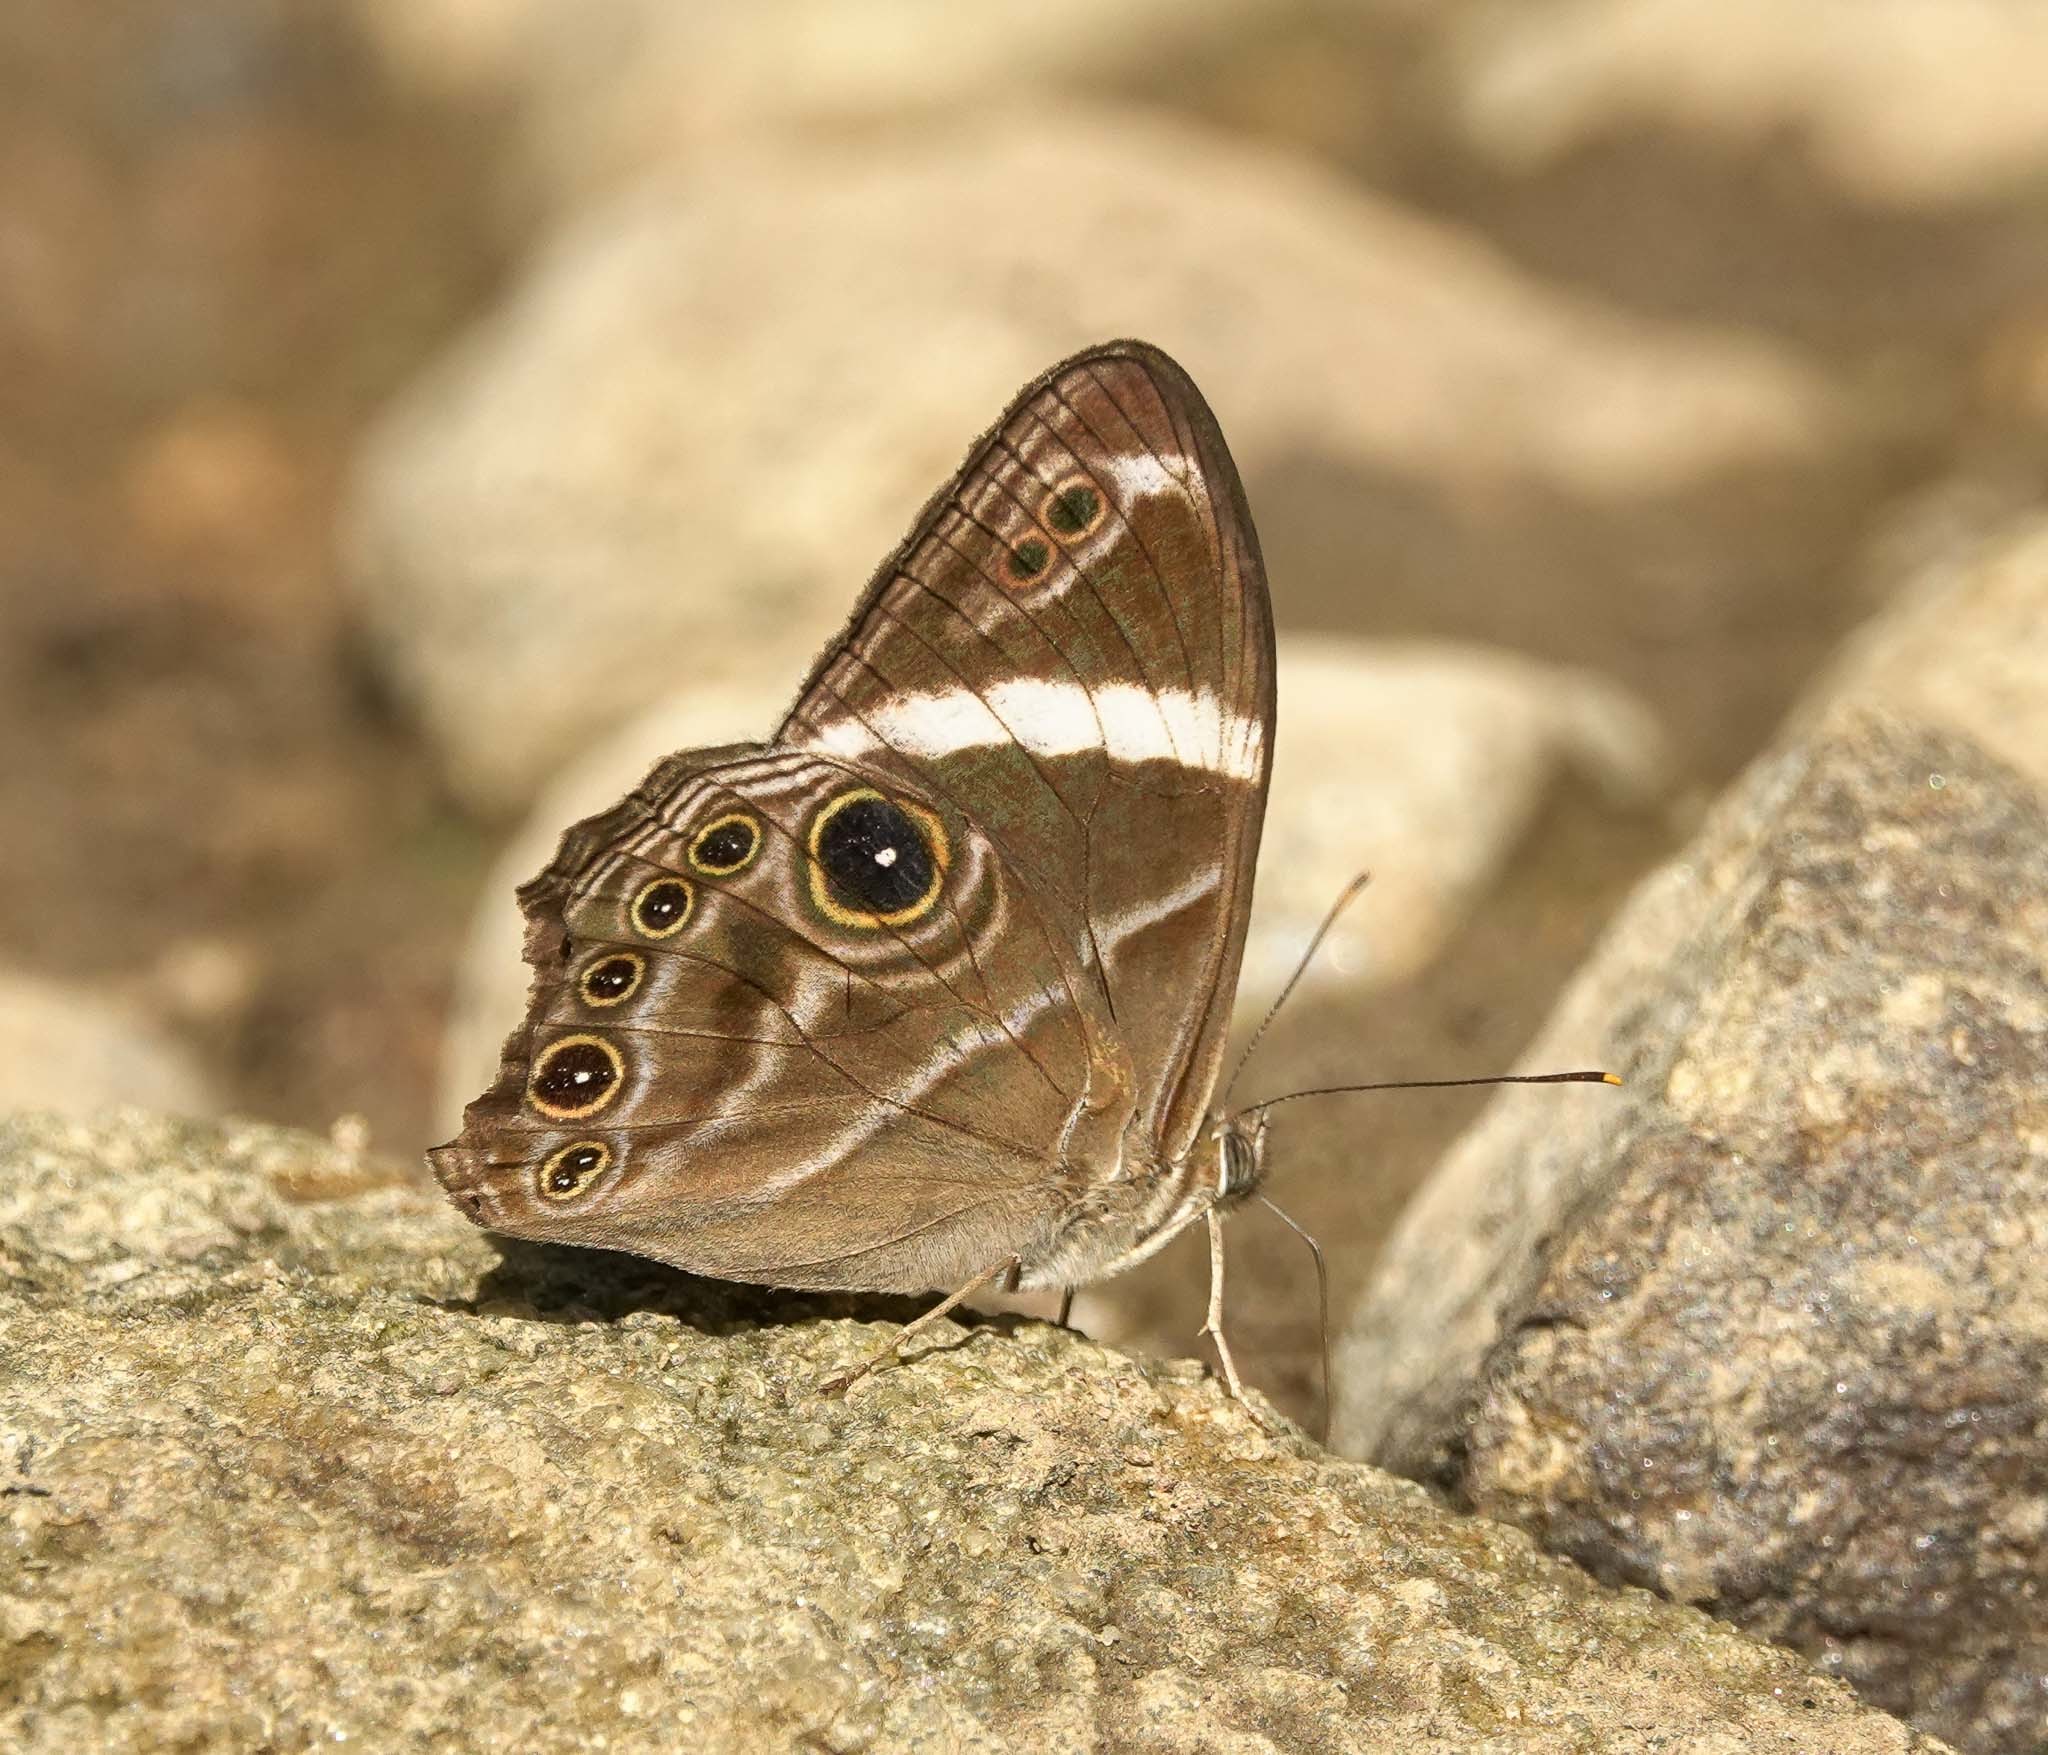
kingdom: Animalia
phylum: Arthropoda
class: Insecta
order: Lepidoptera
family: Nymphalidae
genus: Lethe
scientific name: Lethe confusa
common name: Banded treebrown
